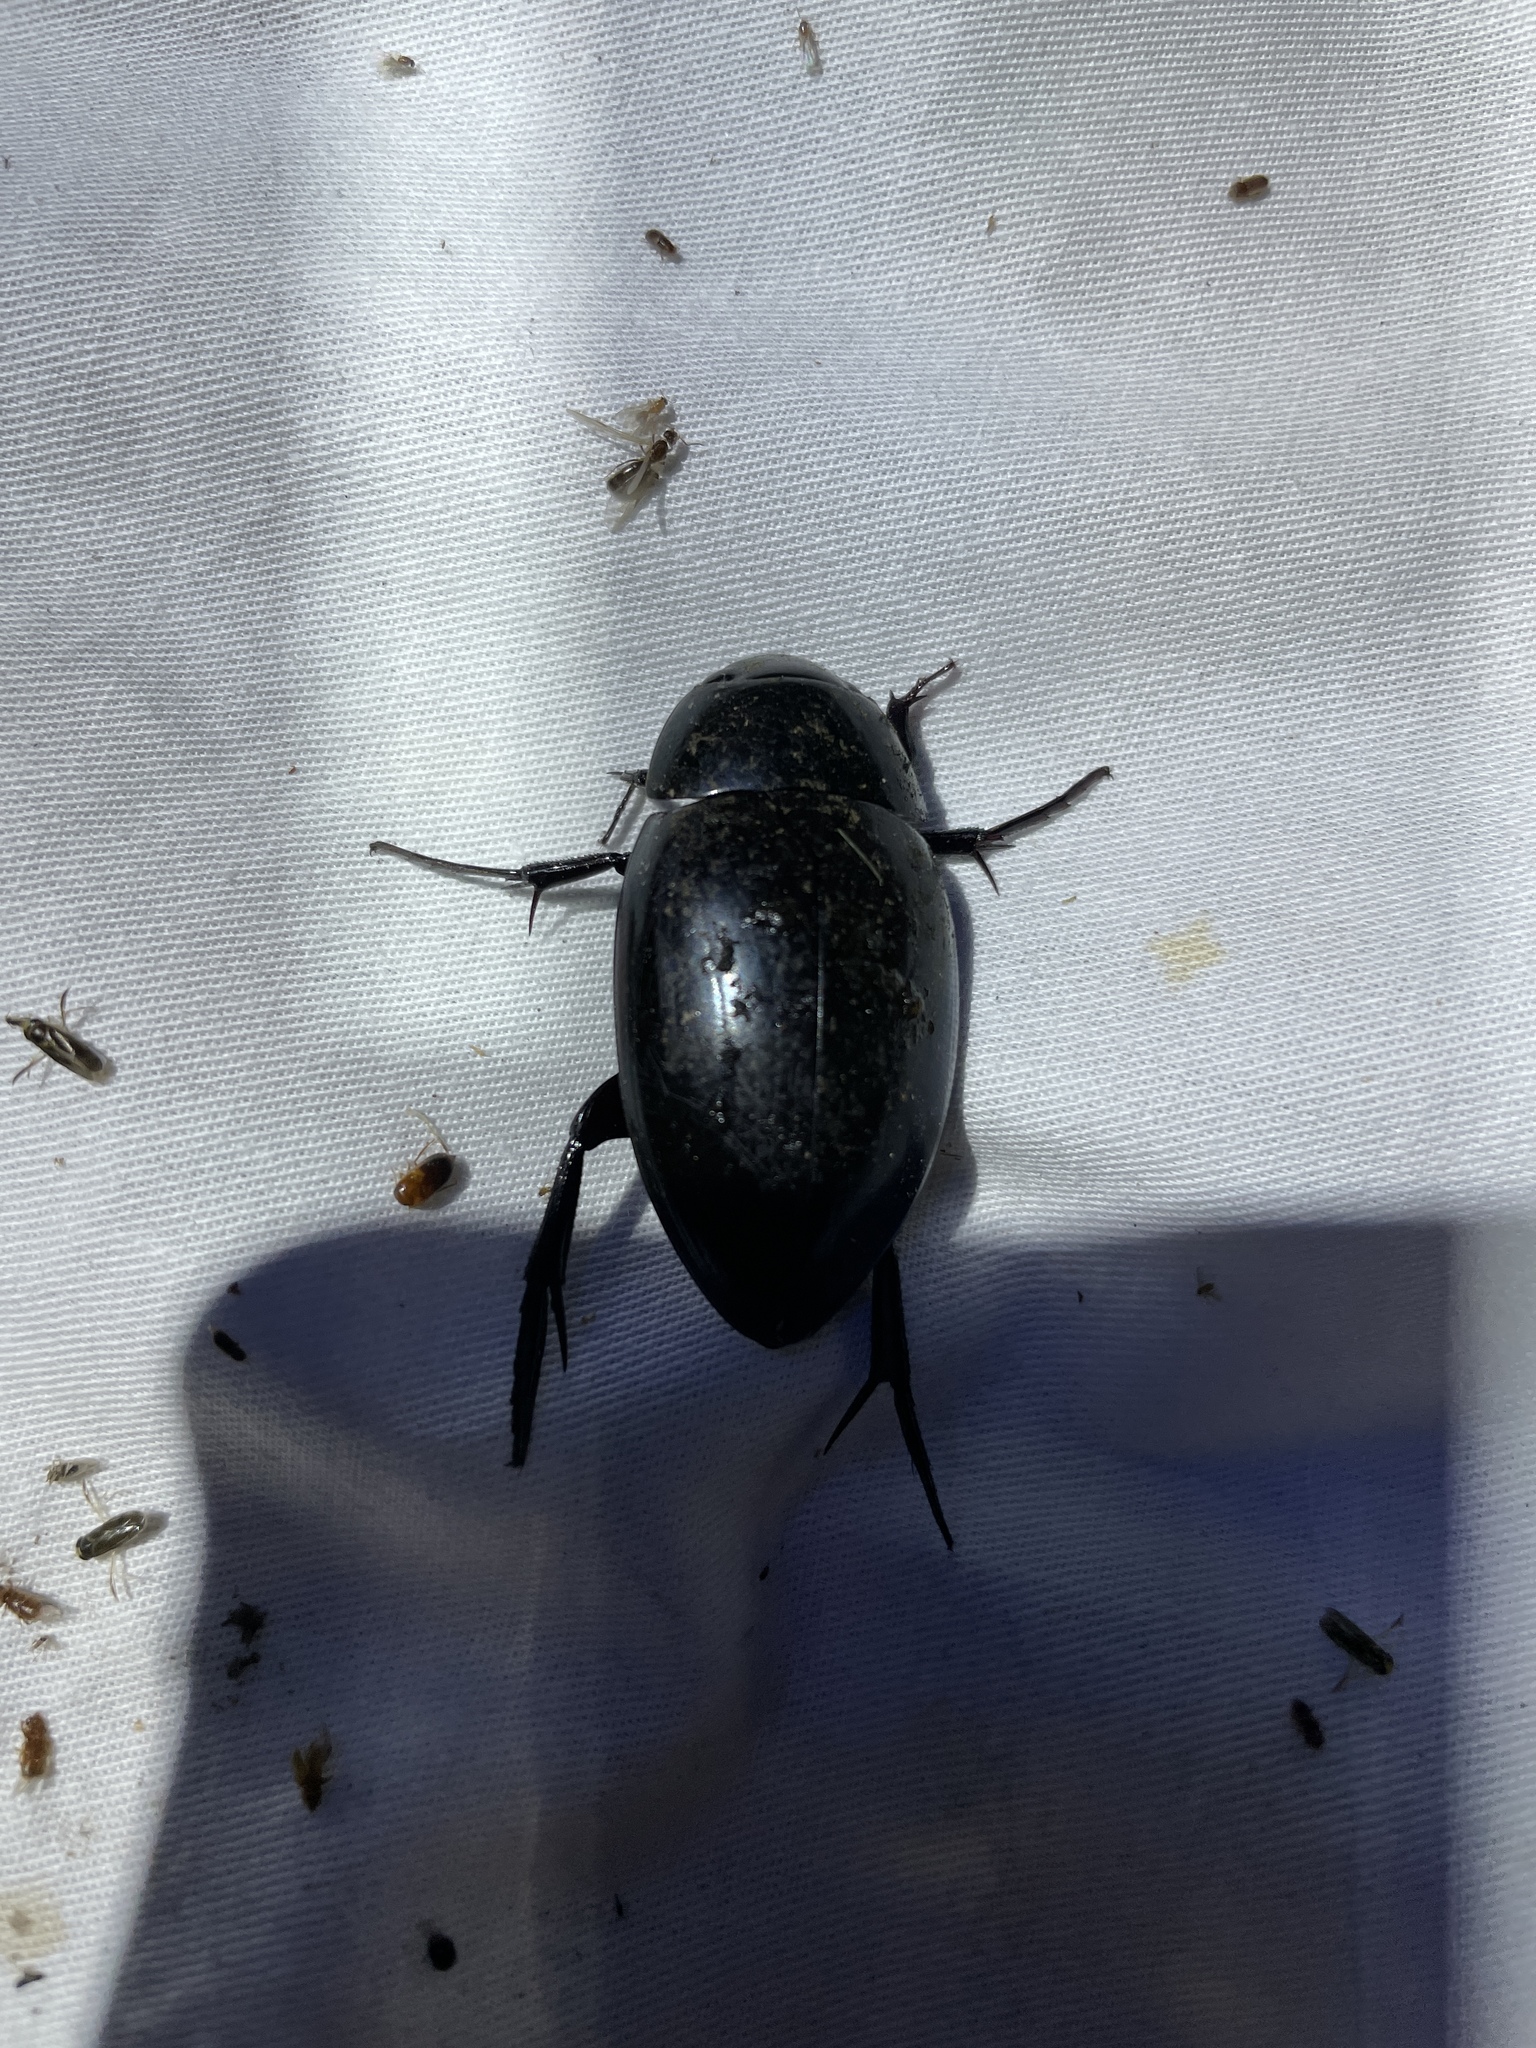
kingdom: Animalia
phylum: Arthropoda
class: Insecta
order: Coleoptera
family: Hydrophilidae
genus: Hydrophilus
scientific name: Hydrophilus ovatus
